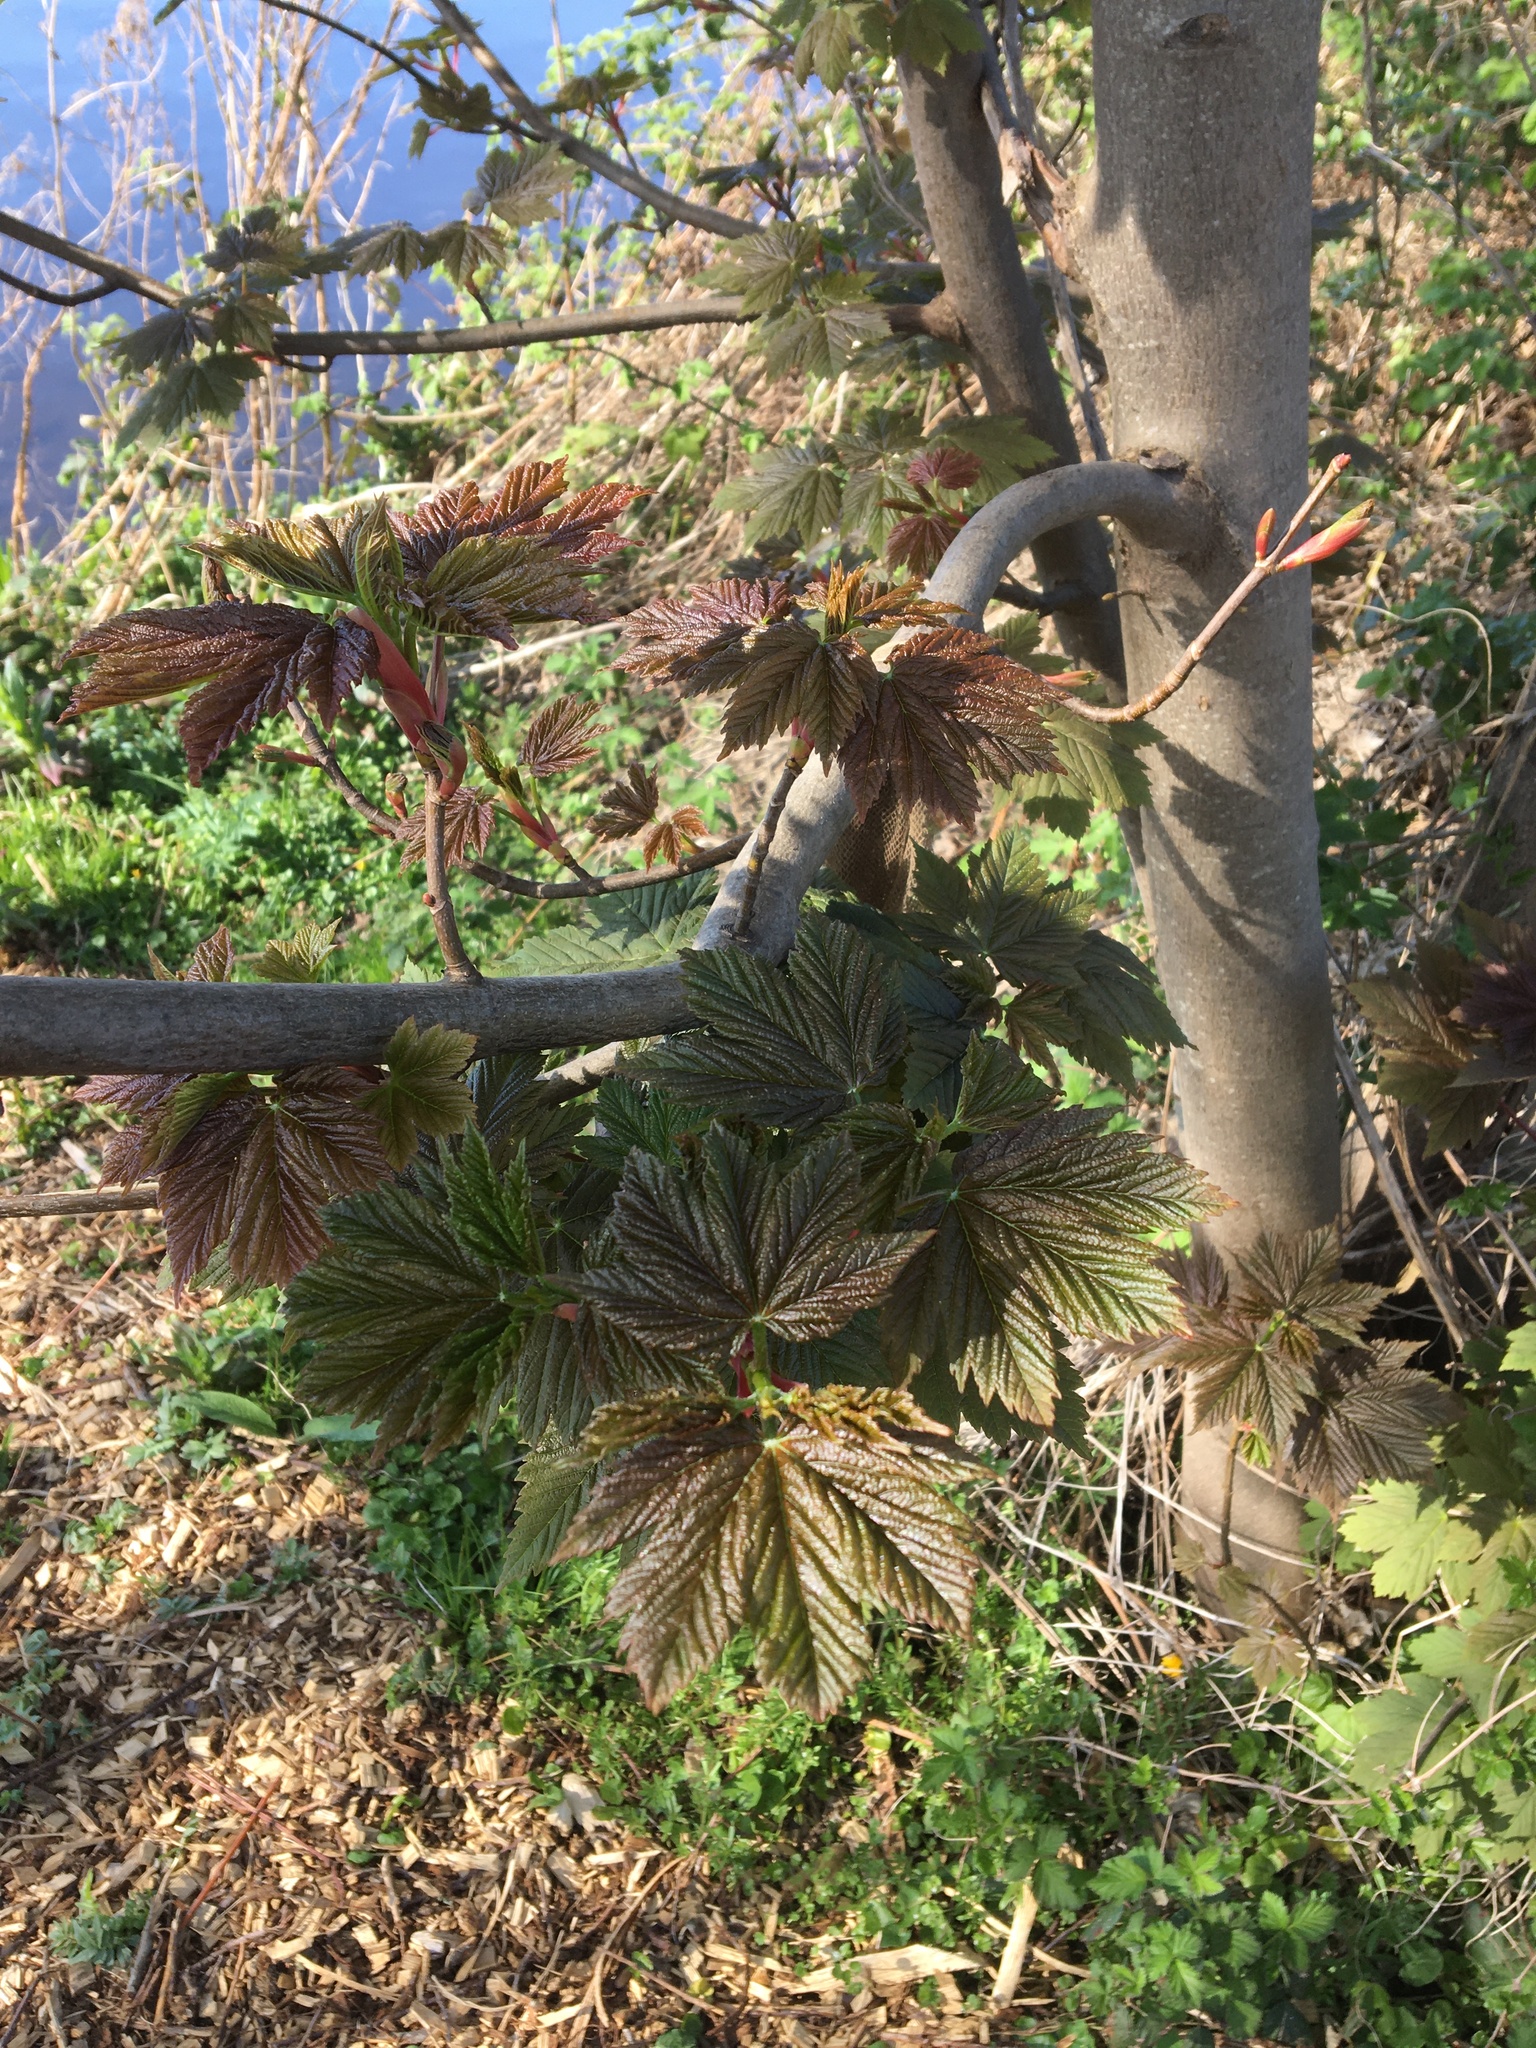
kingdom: Plantae
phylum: Tracheophyta
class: Magnoliopsida
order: Sapindales
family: Sapindaceae
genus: Acer
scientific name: Acer pseudoplatanus
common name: Sycamore
